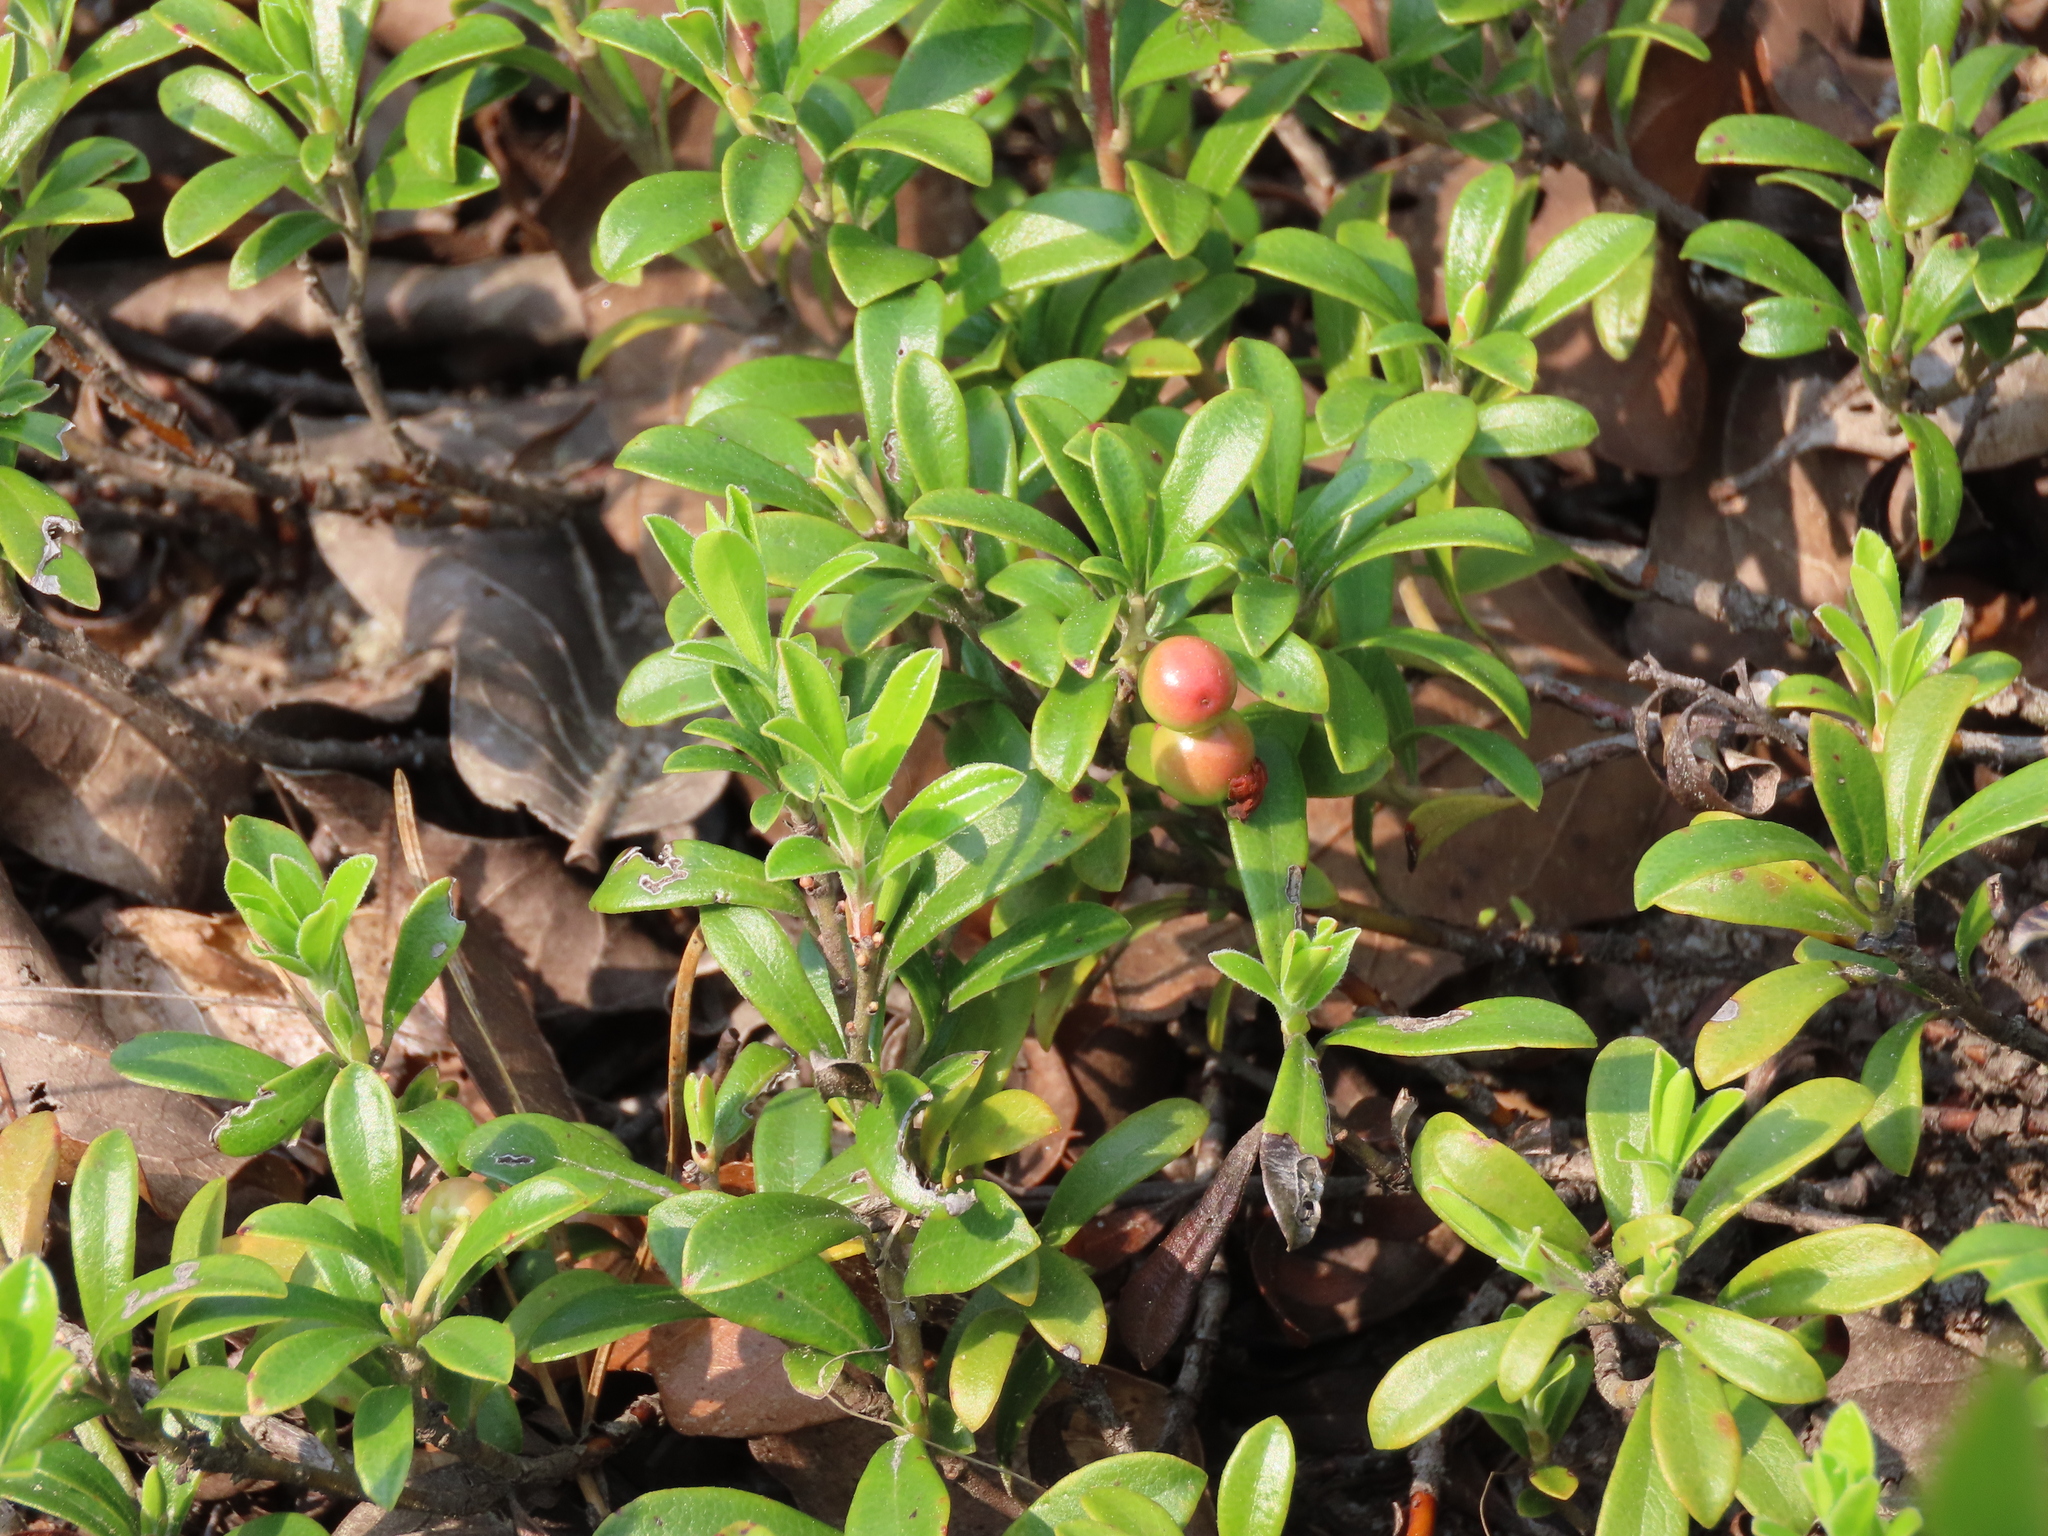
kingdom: Plantae
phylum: Tracheophyta
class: Magnoliopsida
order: Ericales
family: Ericaceae
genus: Arctostaphylos
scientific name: Arctostaphylos uva-ursi
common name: Bearberry
